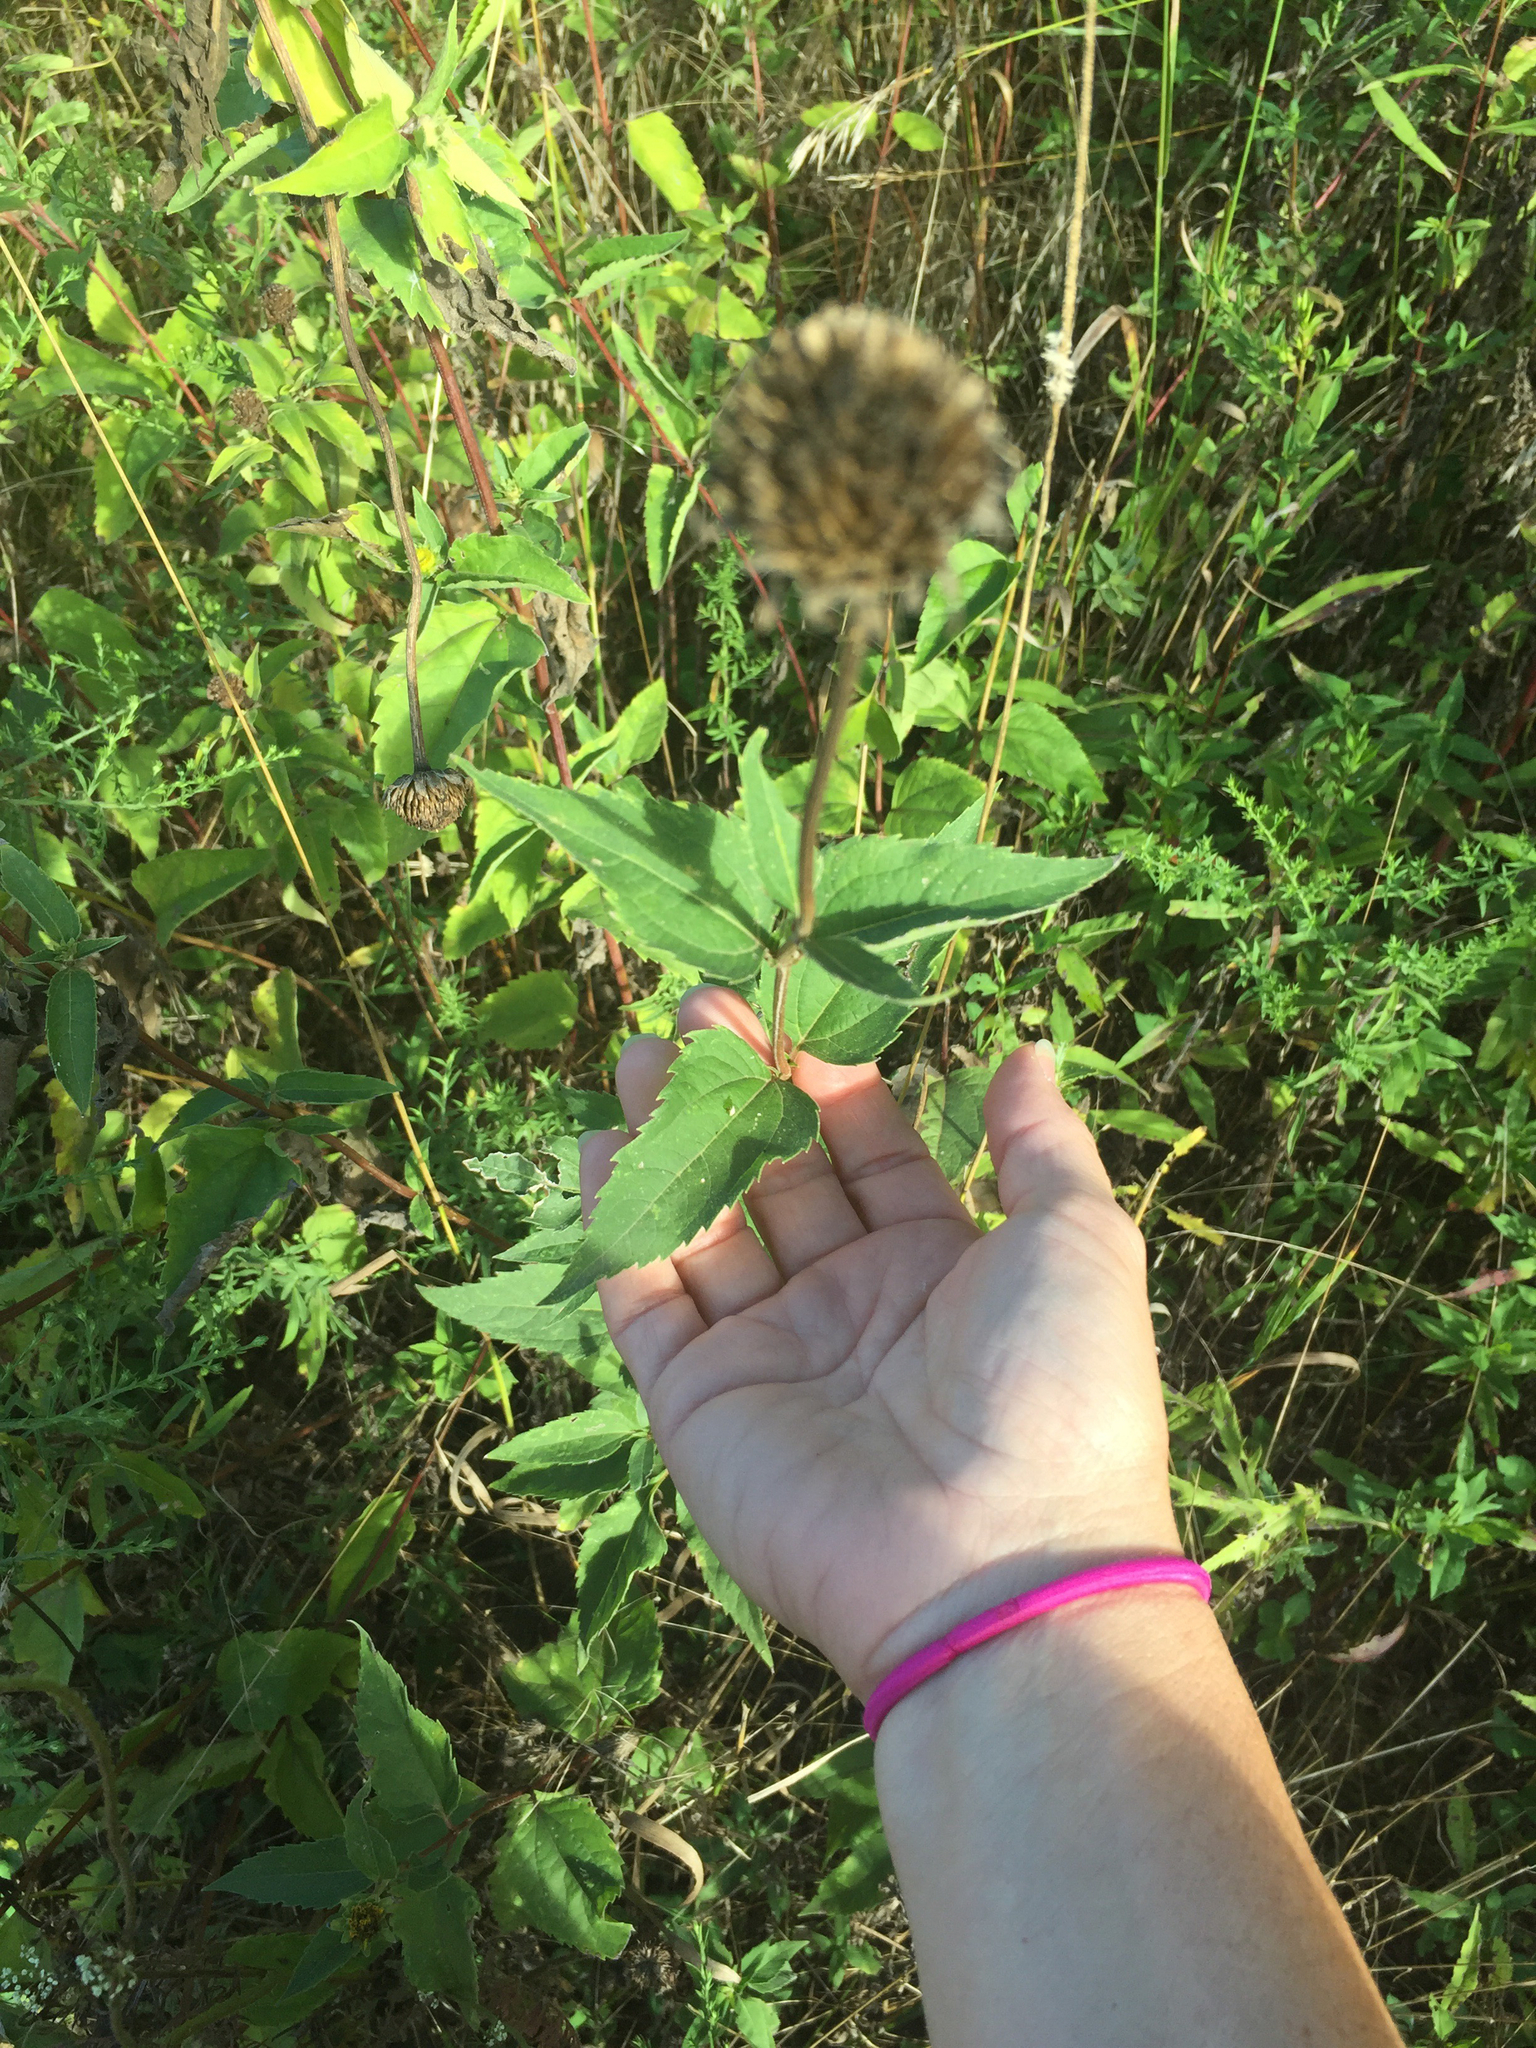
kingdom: Plantae
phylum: Tracheophyta
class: Magnoliopsida
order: Asterales
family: Asteraceae
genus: Heliopsis
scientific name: Heliopsis helianthoides
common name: False sunflower
